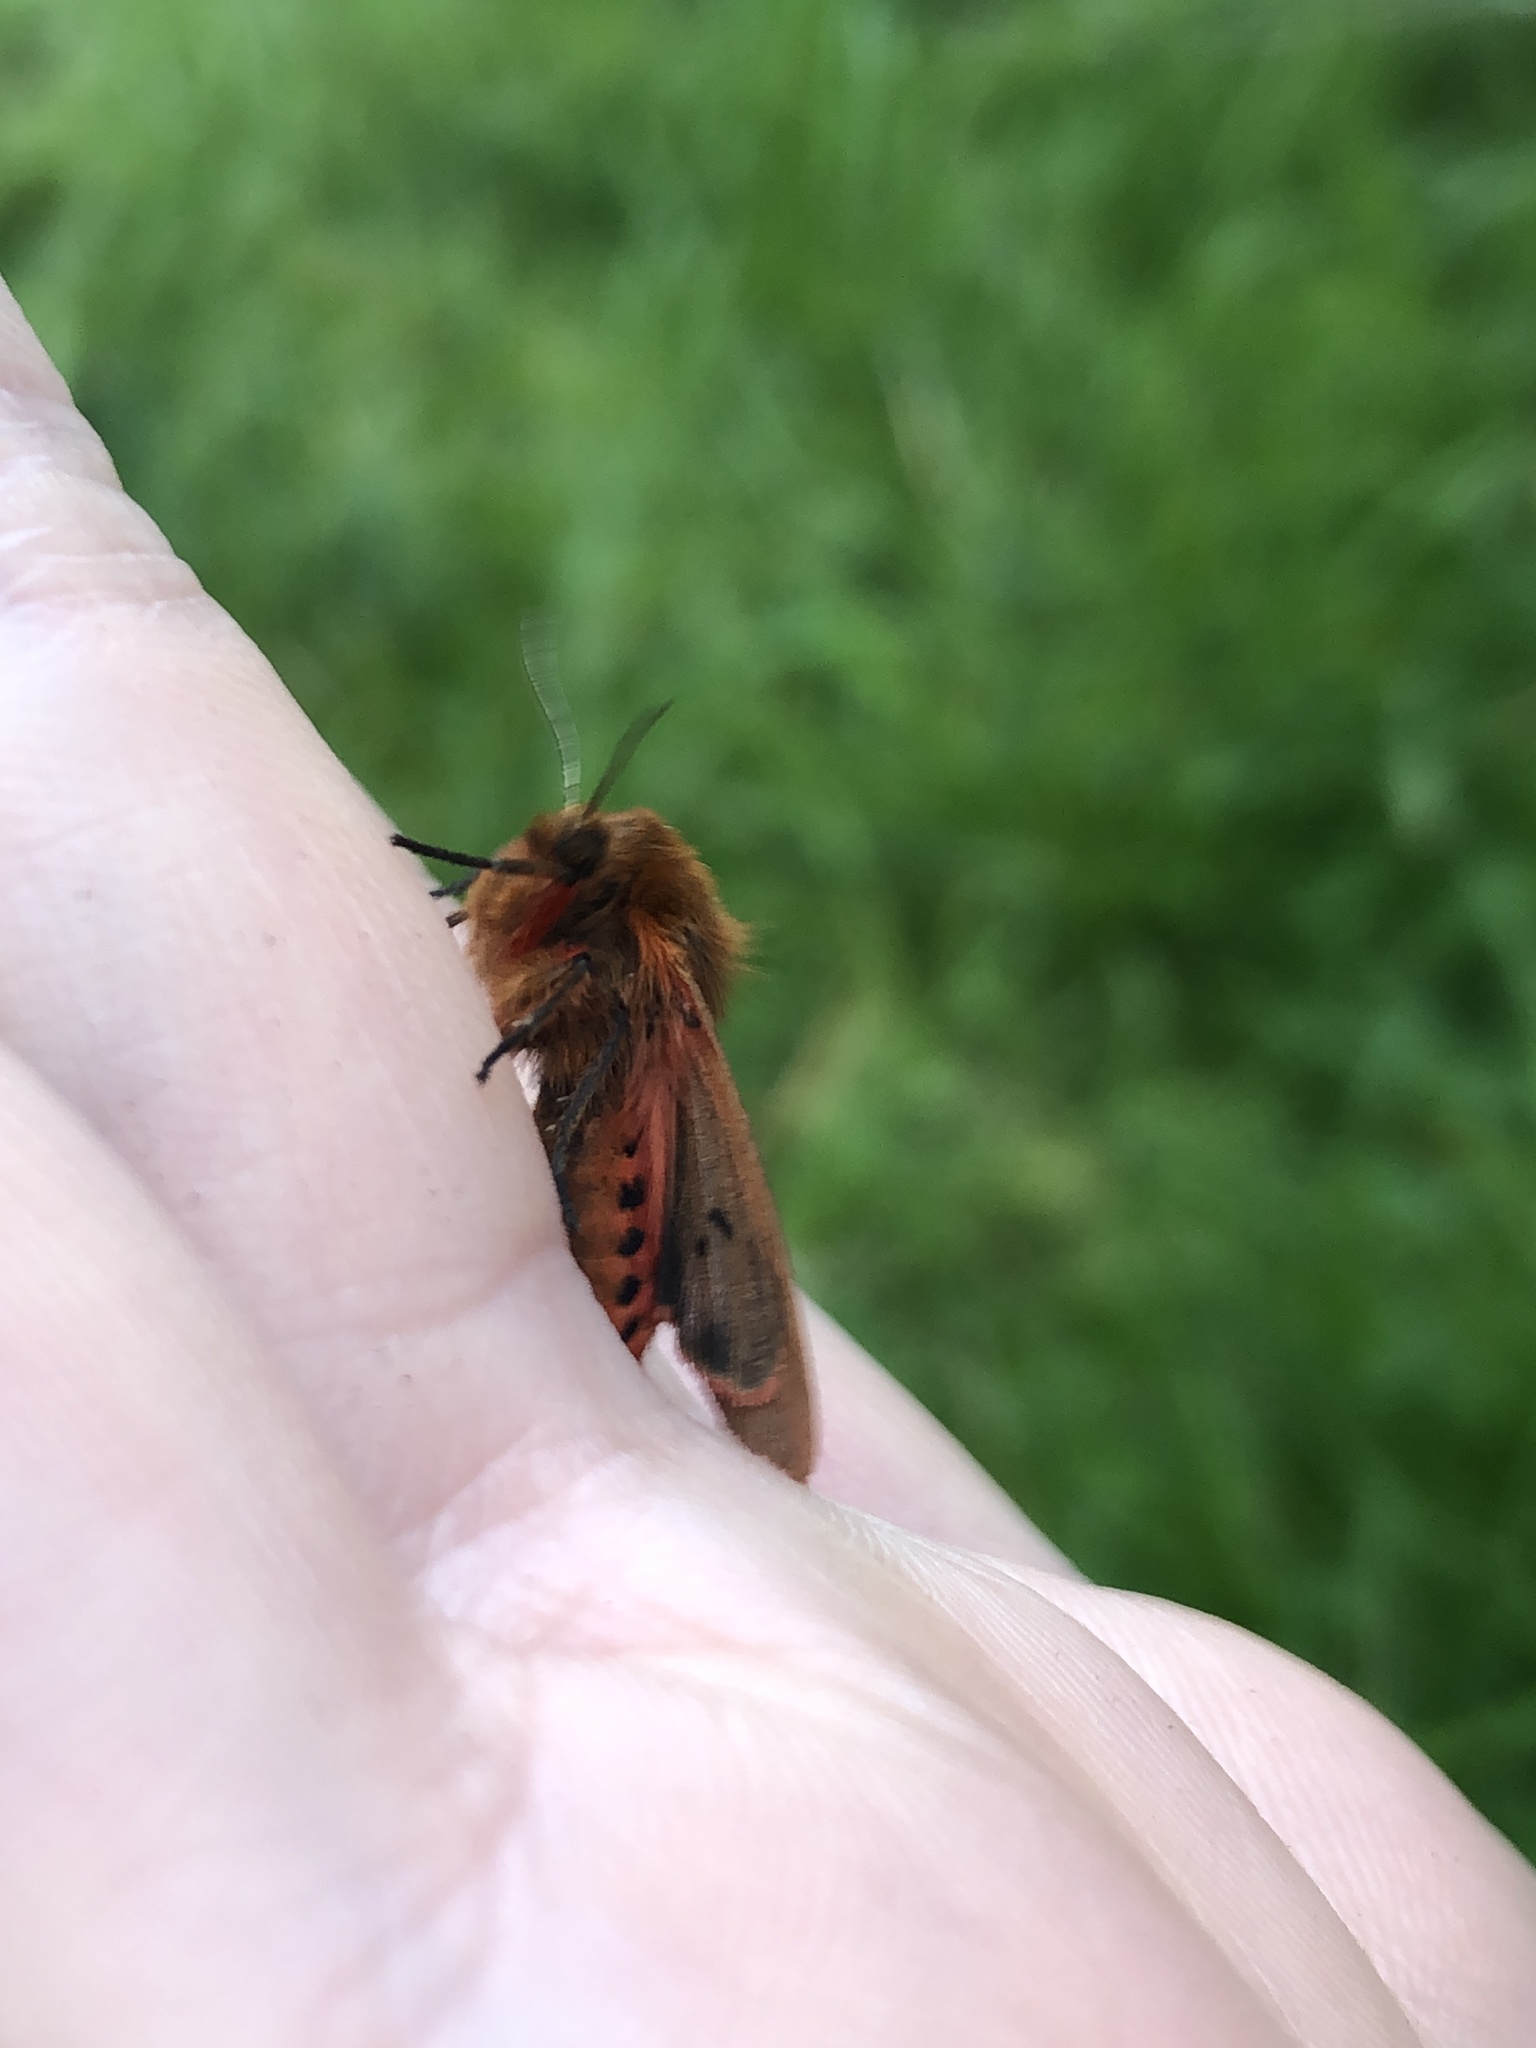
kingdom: Animalia
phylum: Arthropoda
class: Insecta
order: Lepidoptera
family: Erebidae
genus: Phragmatobia
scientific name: Phragmatobia fuliginosa
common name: Ruby tiger
